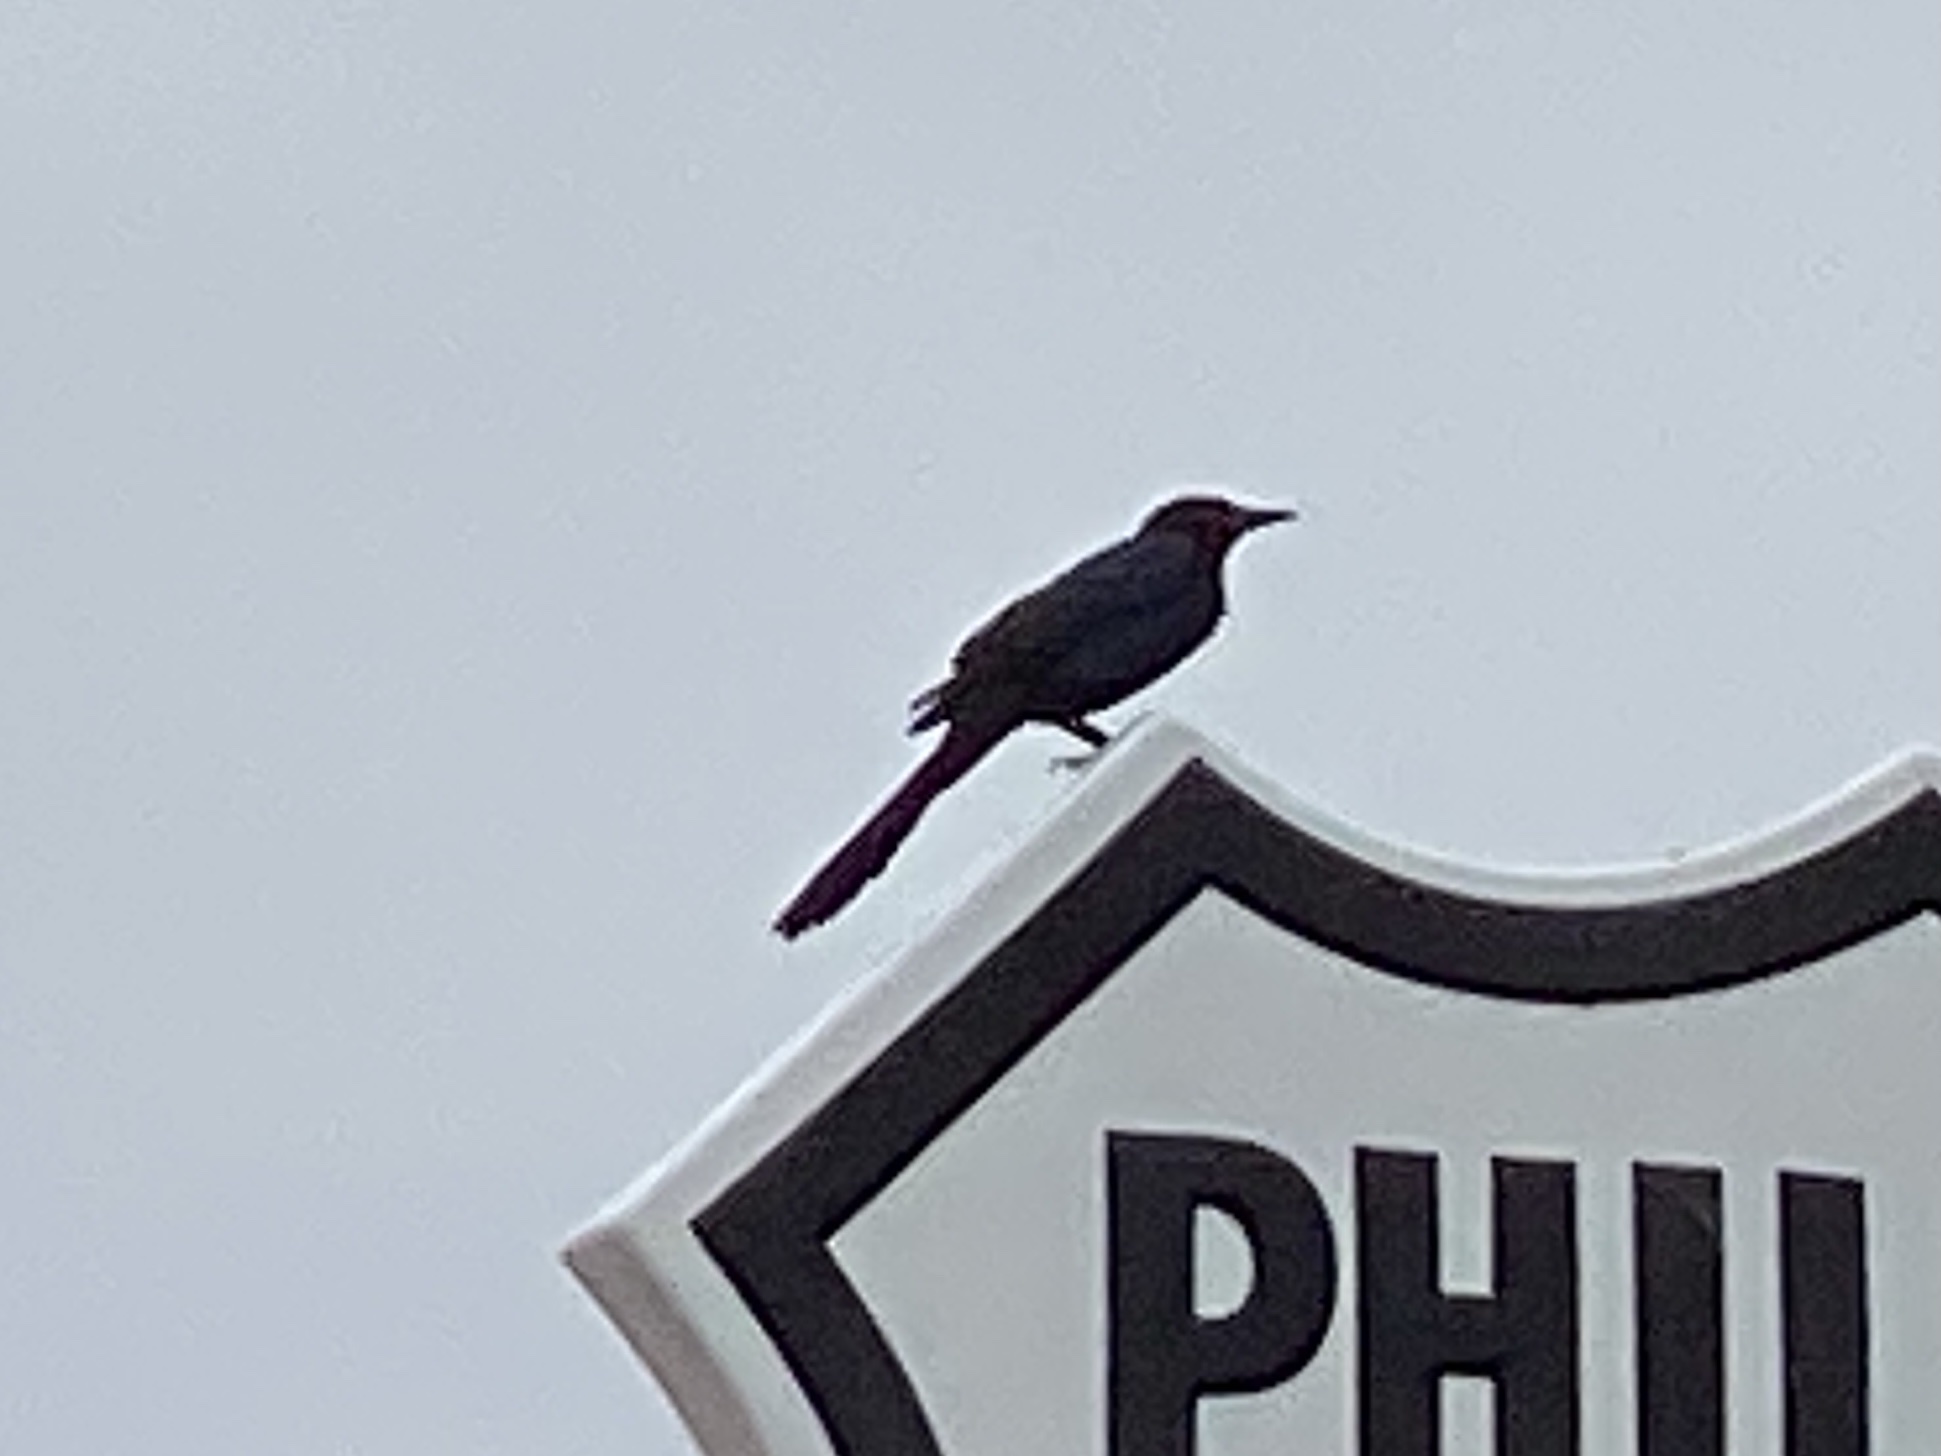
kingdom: Animalia
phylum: Chordata
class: Aves
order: Passeriformes
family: Icteridae
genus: Quiscalus
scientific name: Quiscalus mexicanus
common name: Great-tailed grackle
